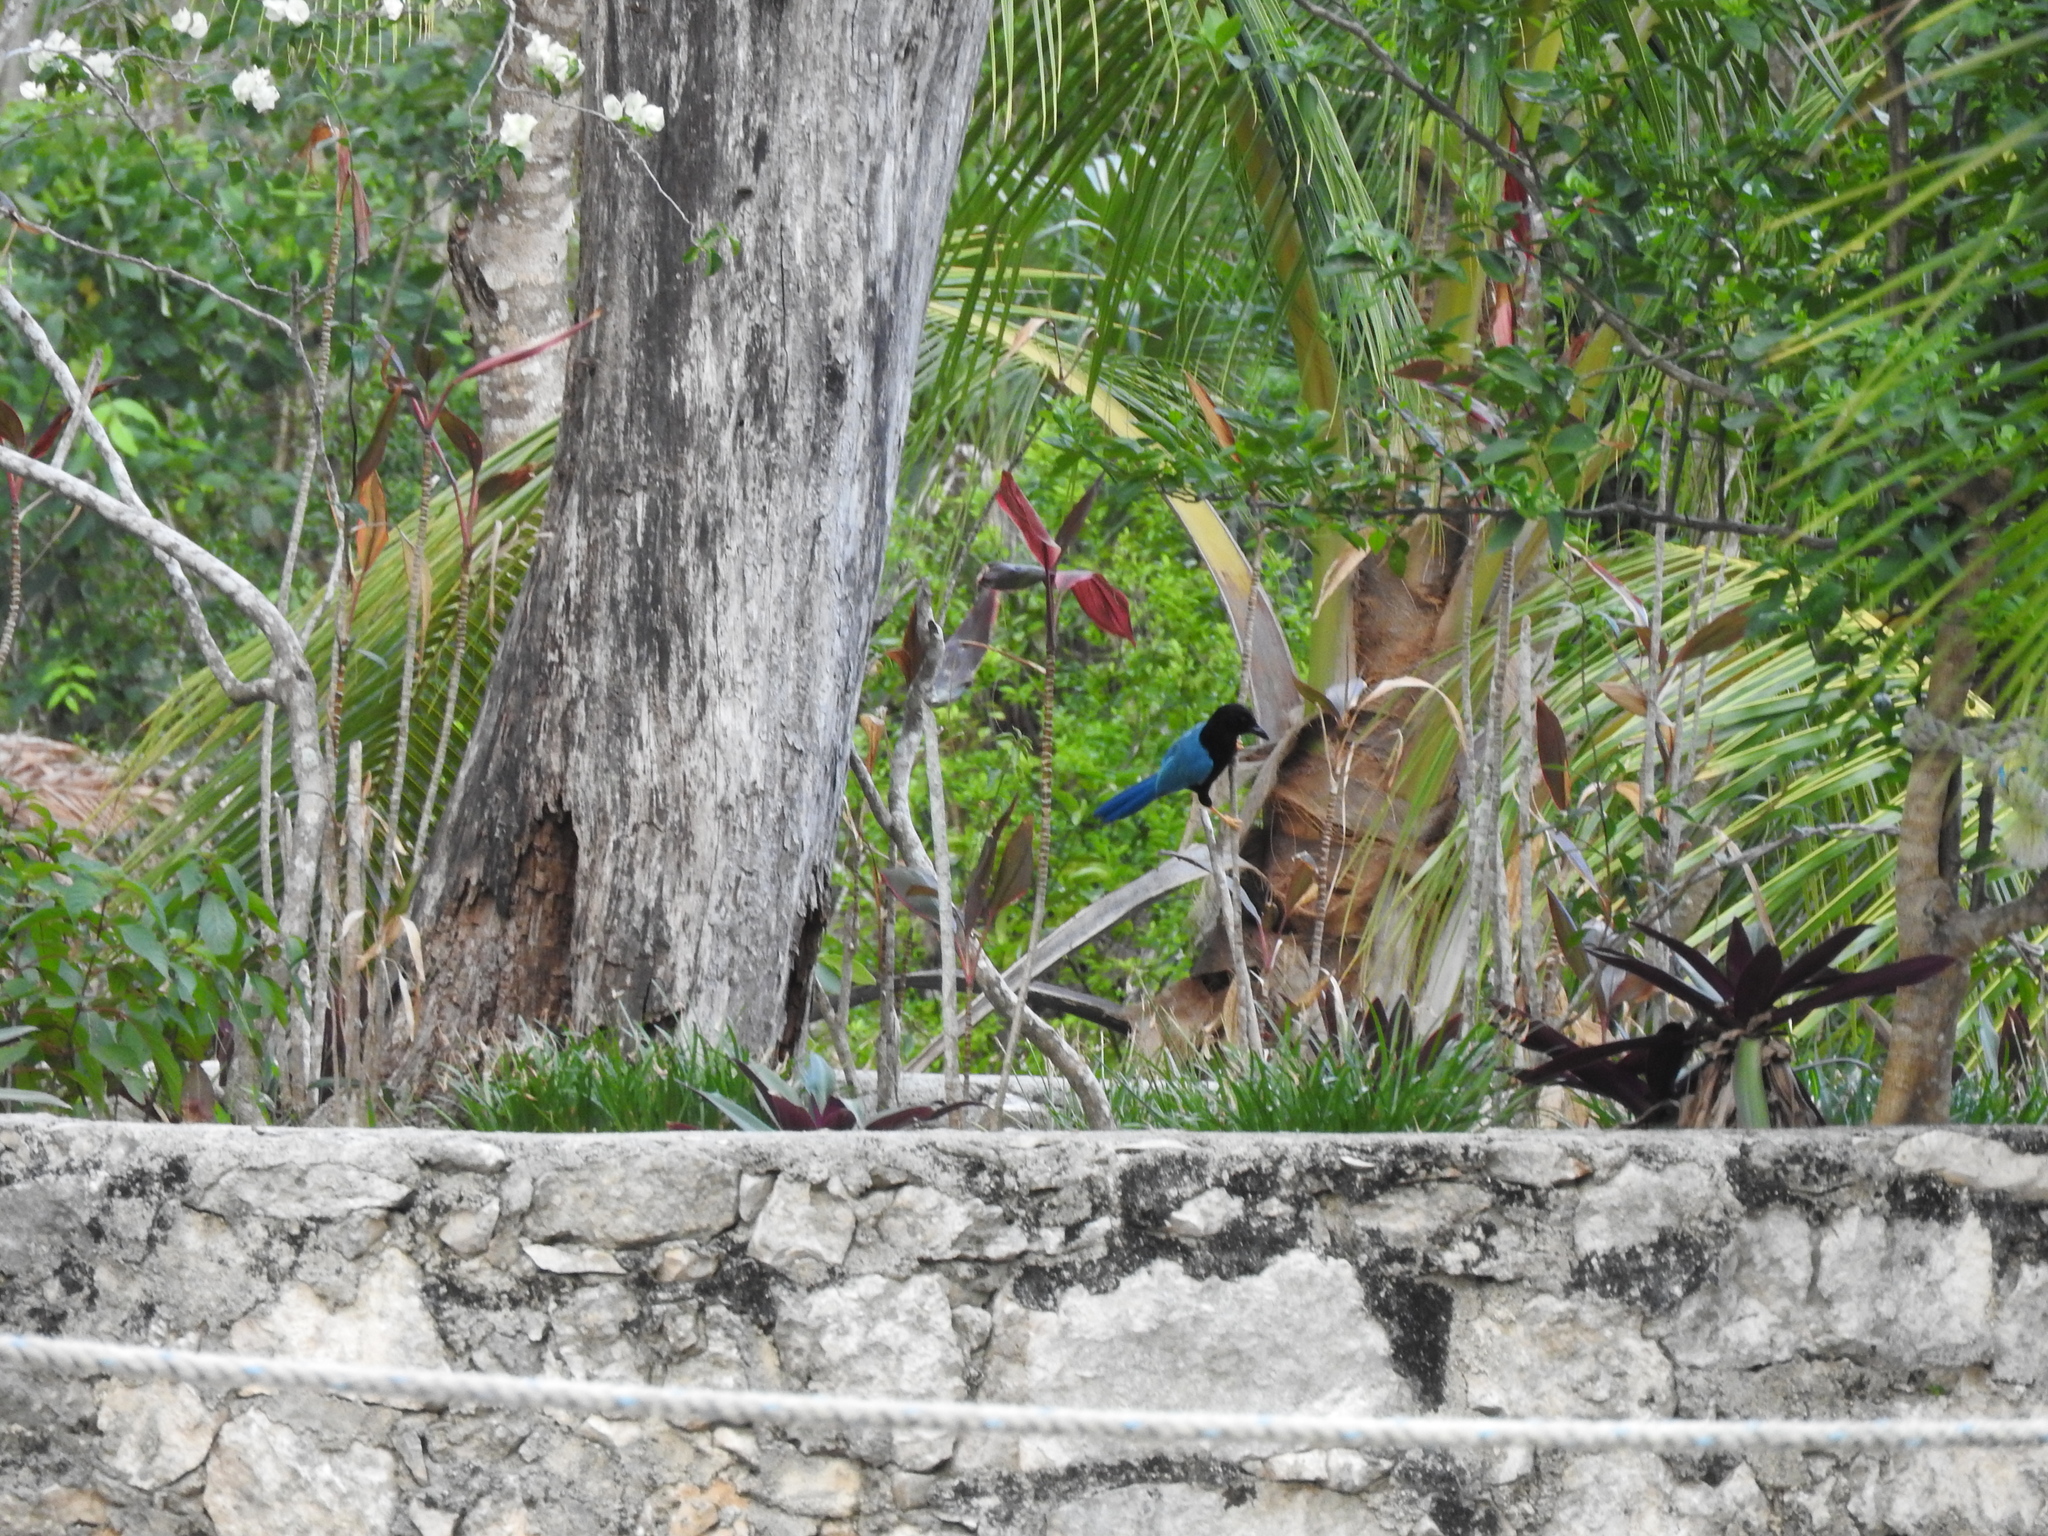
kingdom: Animalia
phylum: Chordata
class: Aves
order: Passeriformes
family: Corvidae
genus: Cyanocorax
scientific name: Cyanocorax yucatanicus
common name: Yucatan jay
